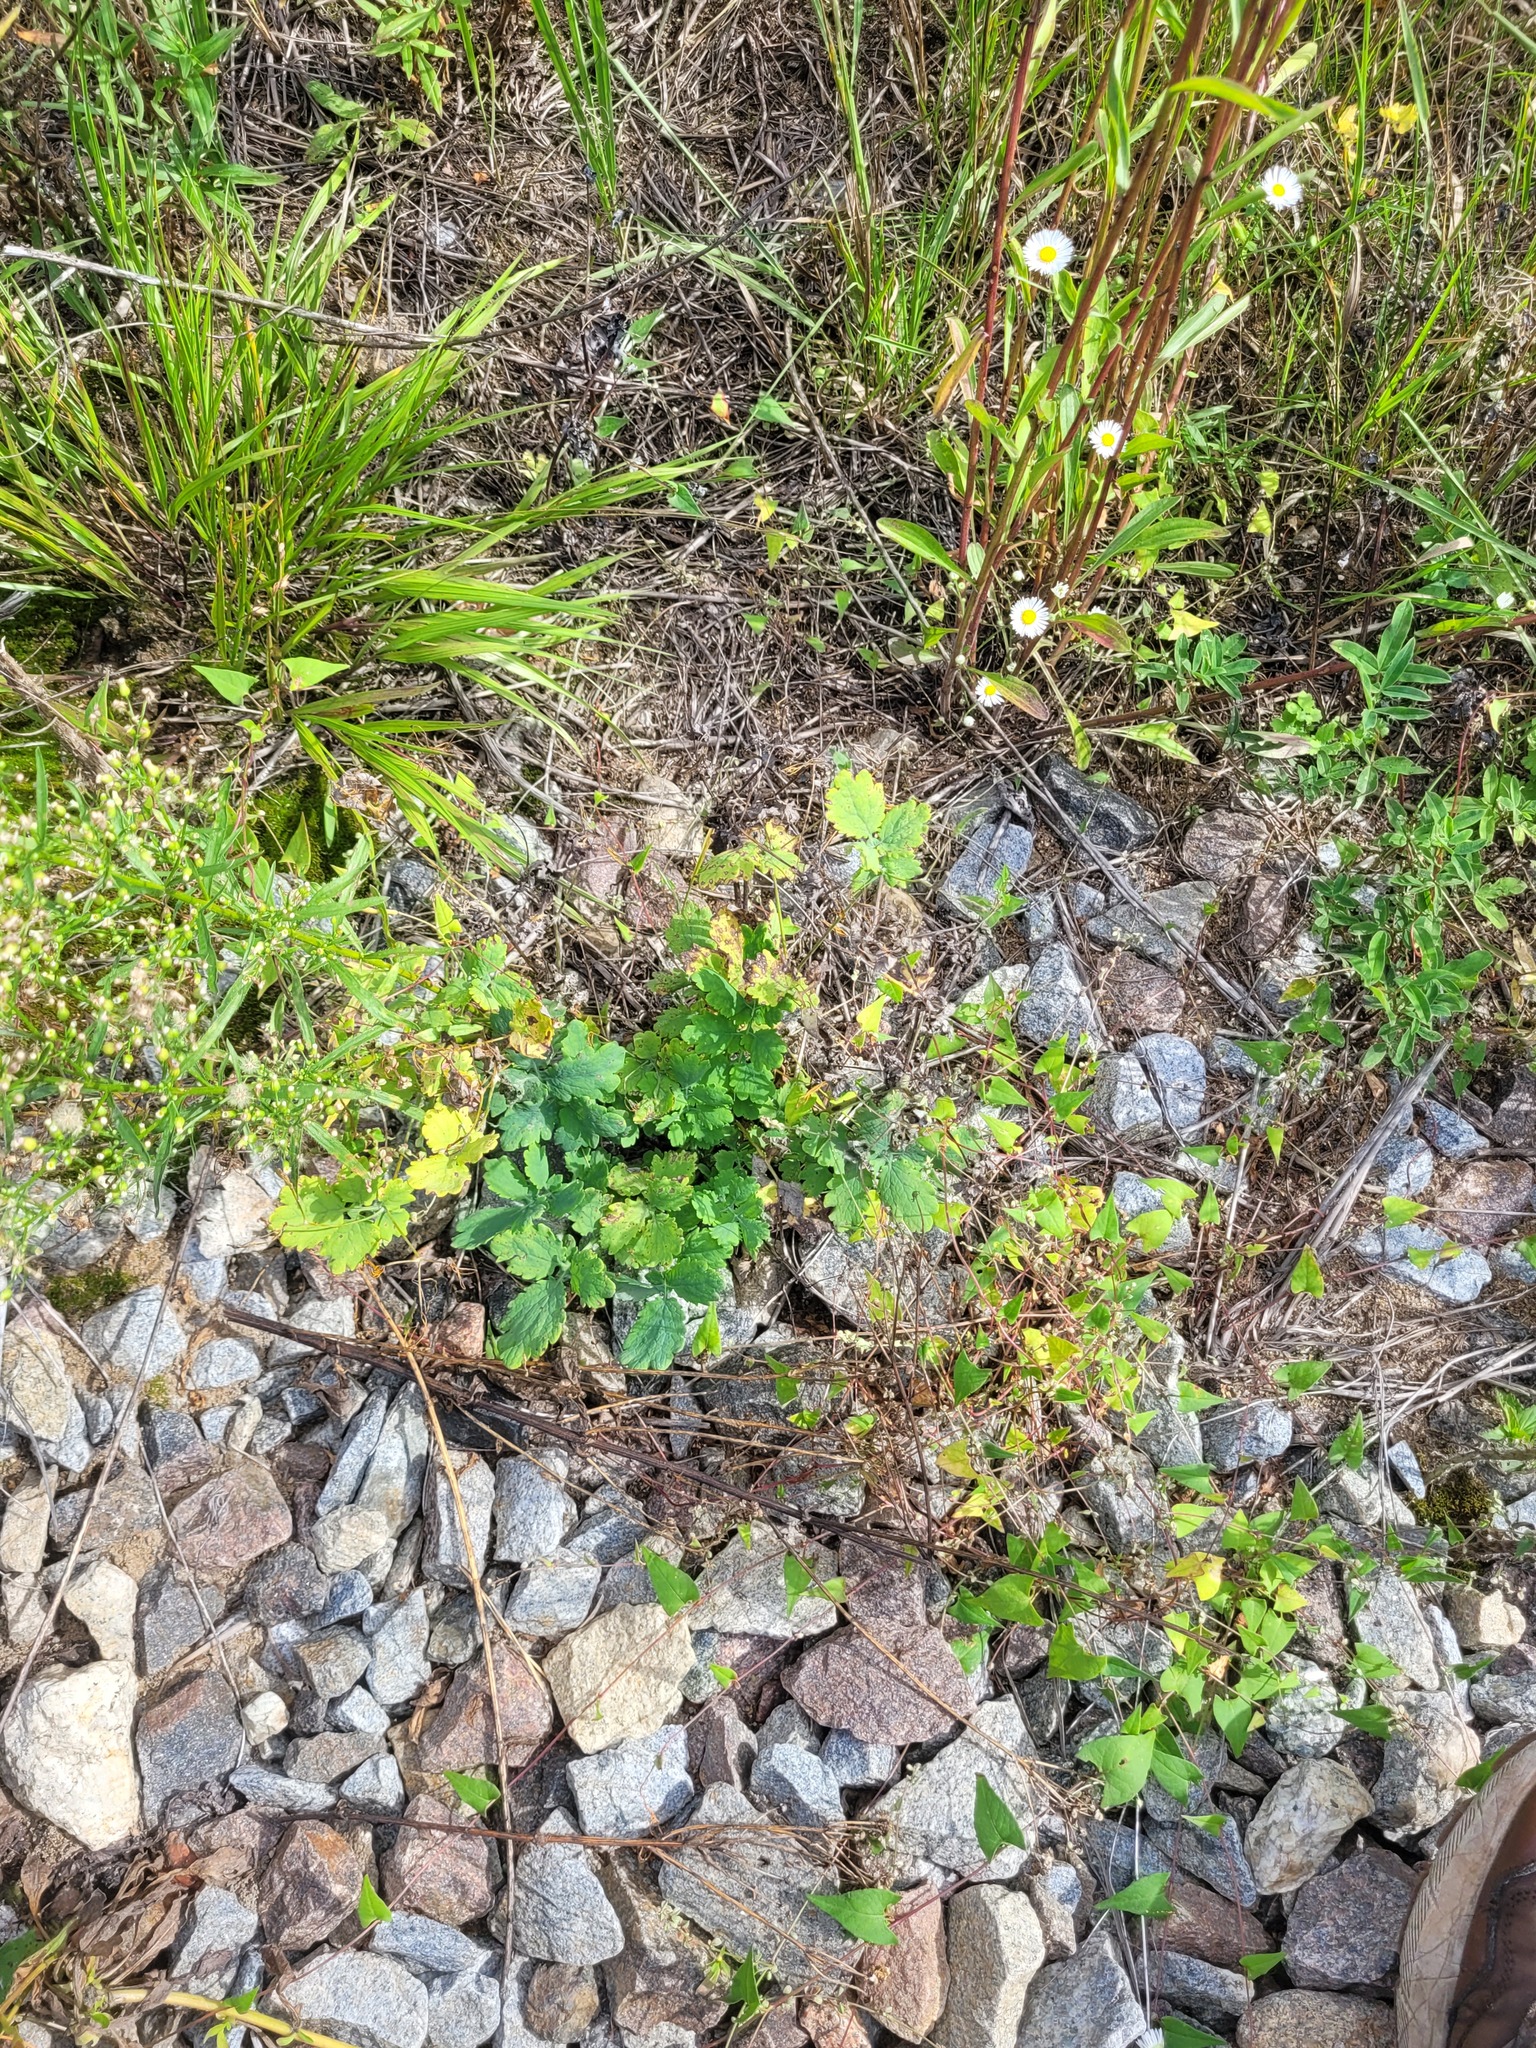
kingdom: Plantae
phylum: Tracheophyta
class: Magnoliopsida
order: Ranunculales
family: Papaveraceae
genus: Chelidonium
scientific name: Chelidonium majus
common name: Greater celandine
